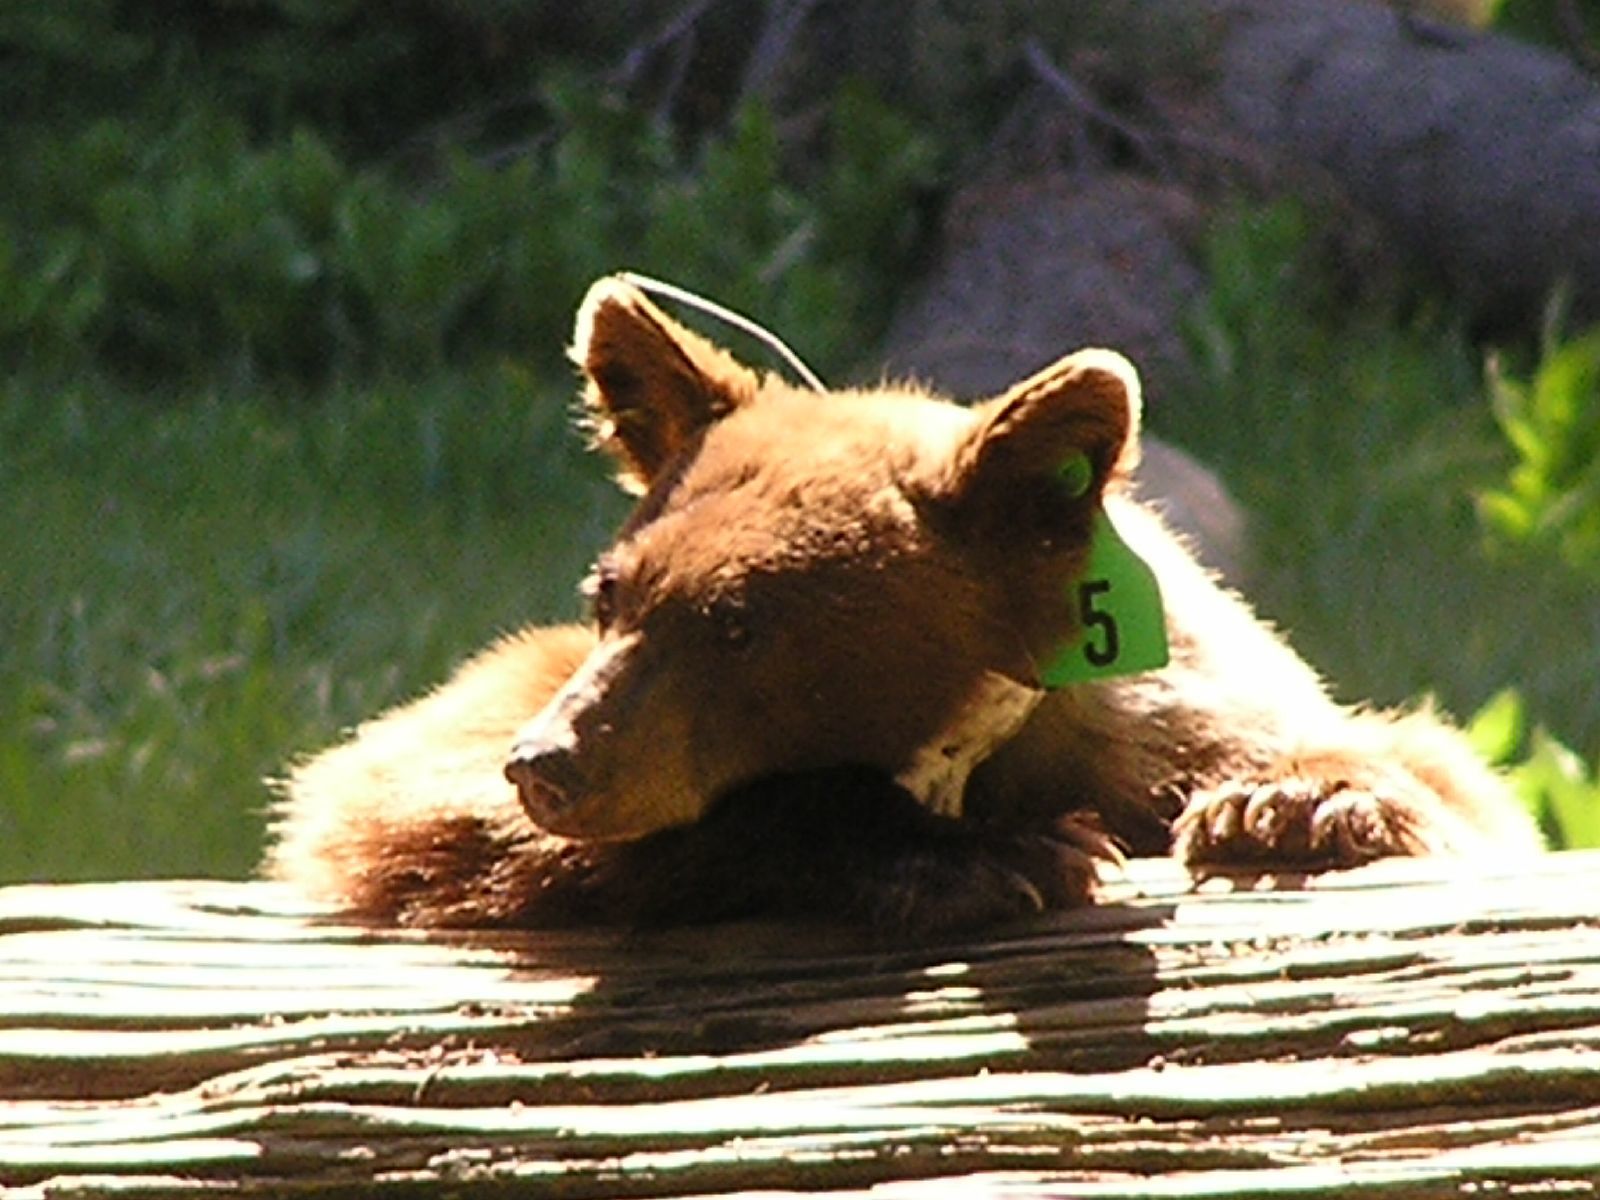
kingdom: Animalia
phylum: Chordata
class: Mammalia
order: Carnivora
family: Ursidae
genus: Ursus
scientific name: Ursus americanus
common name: American black bear
